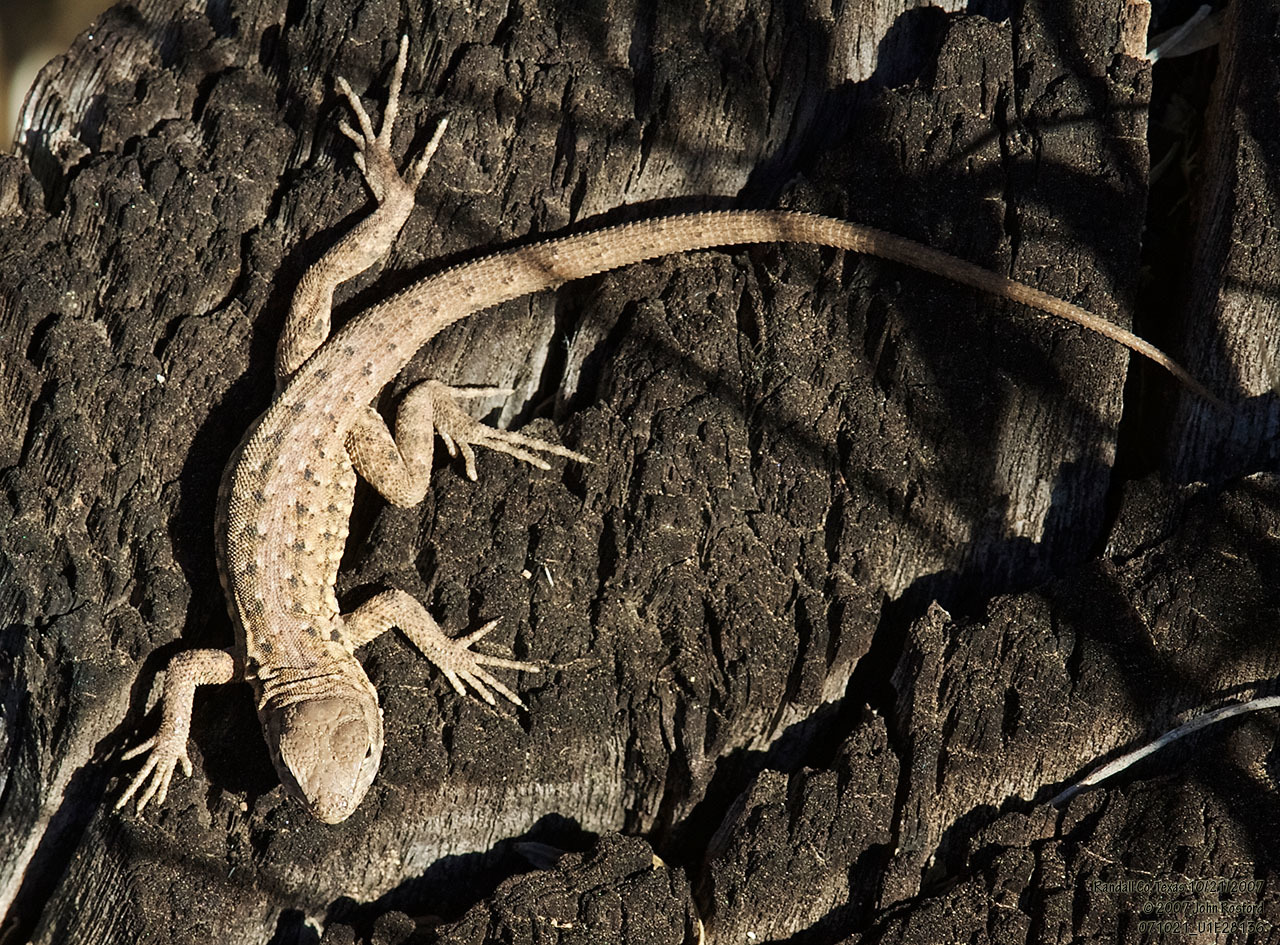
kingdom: Animalia
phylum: Chordata
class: Squamata
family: Phrynosomatidae
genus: Uta
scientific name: Uta stansburiana
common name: Side-blotched lizard
